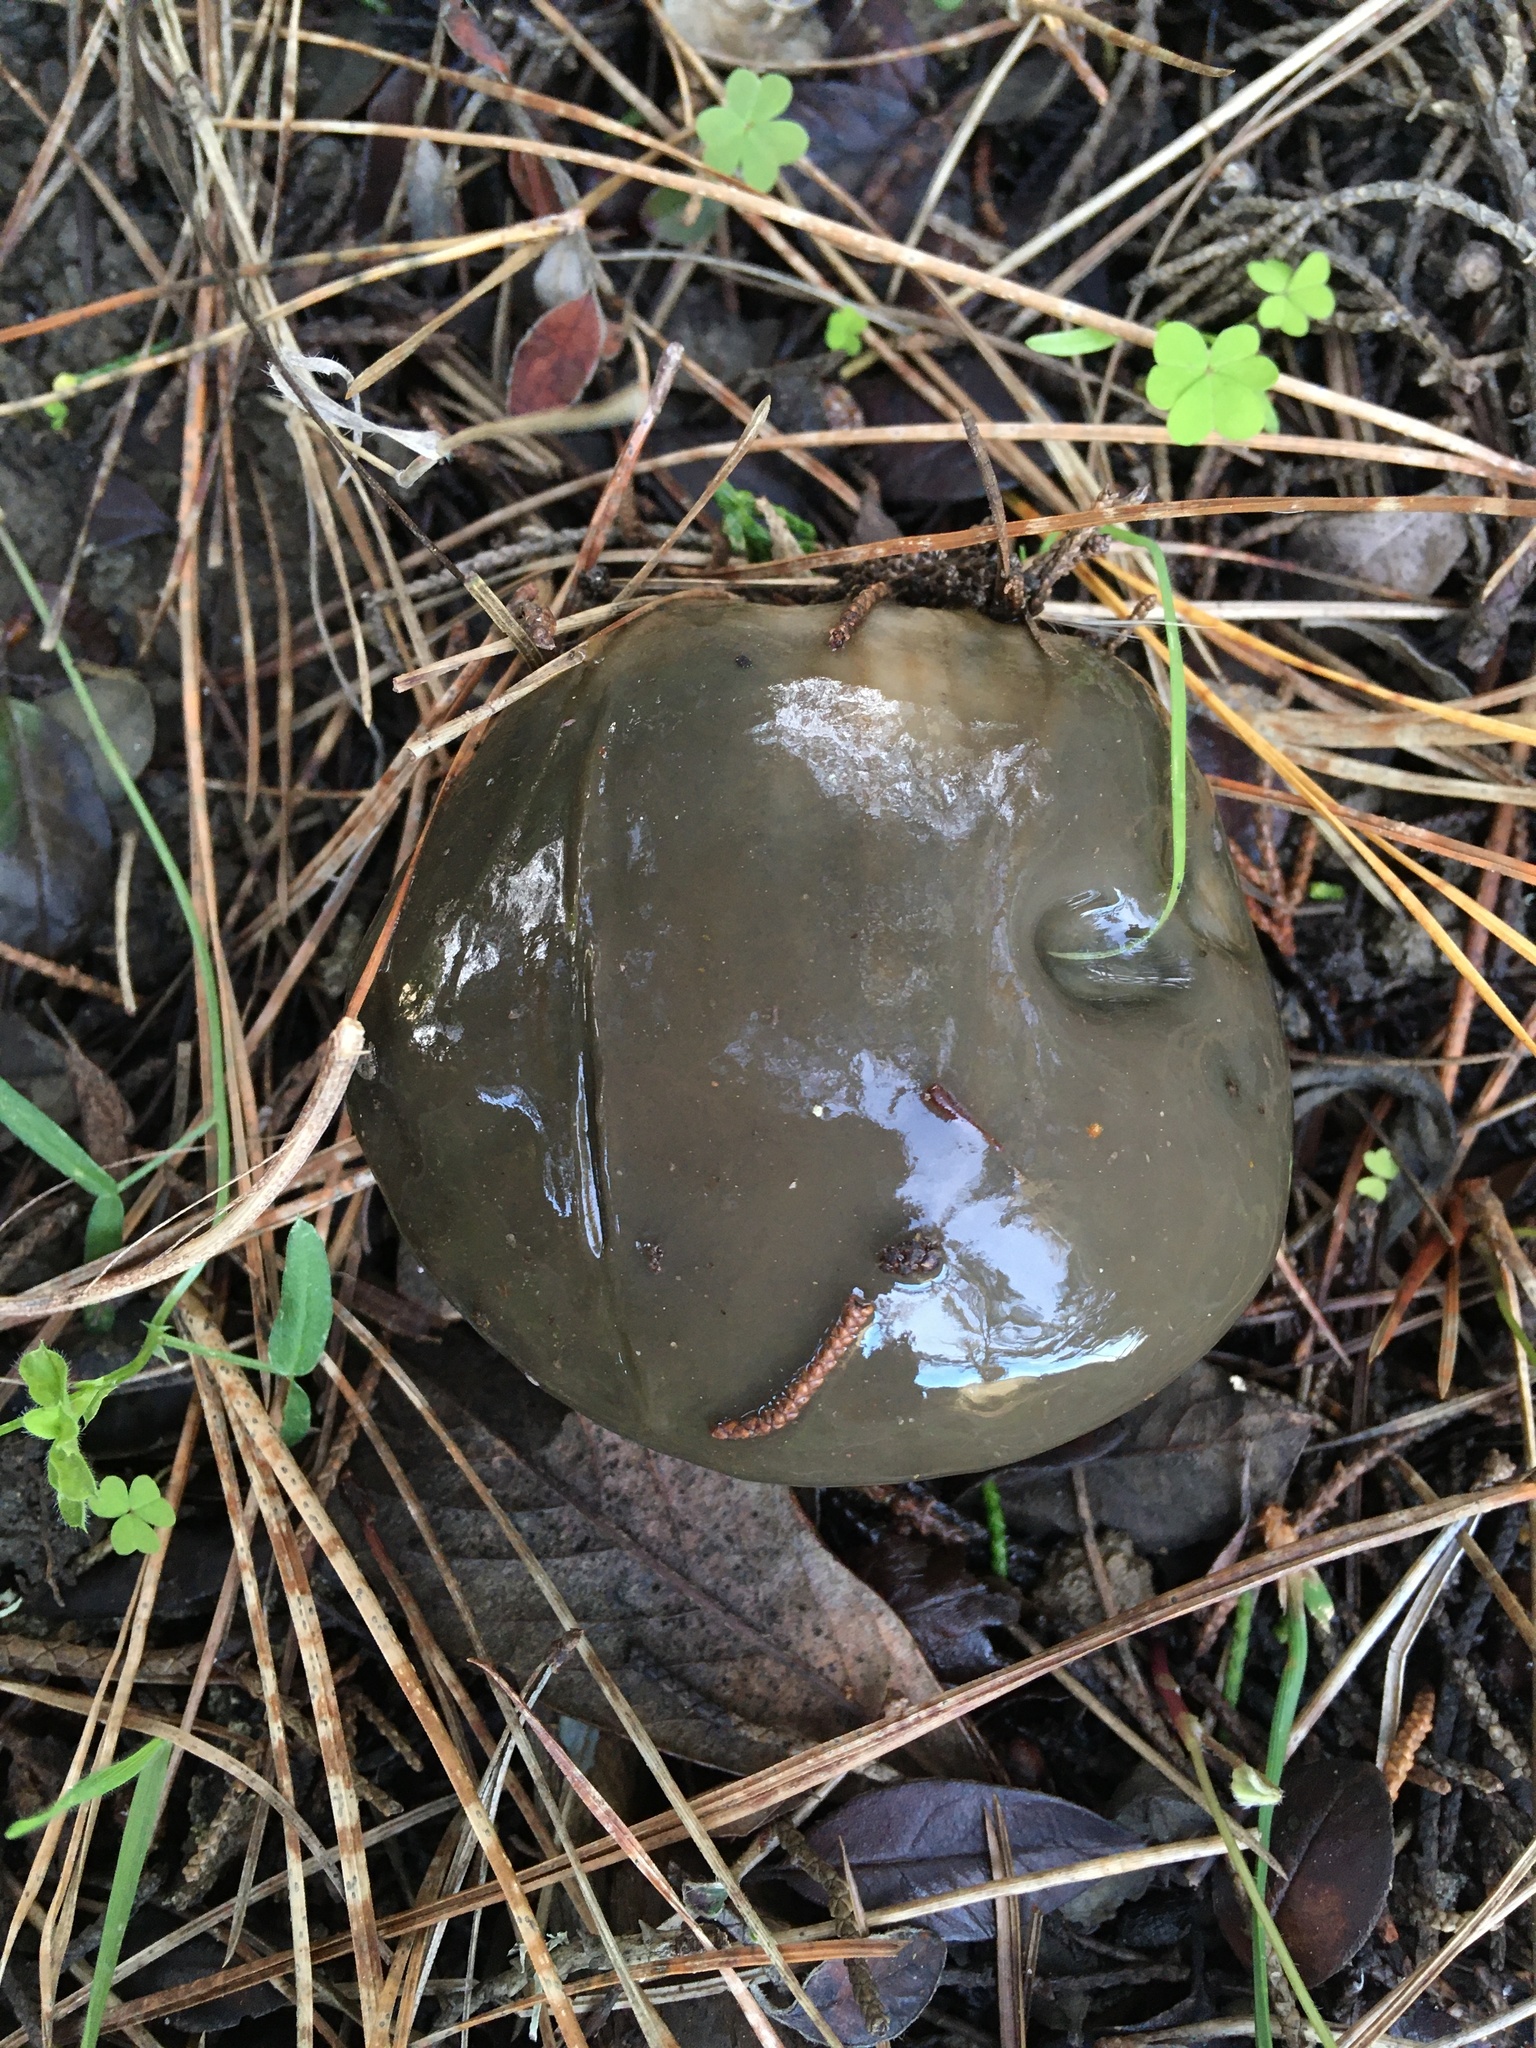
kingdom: Fungi
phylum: Basidiomycota
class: Agaricomycetes
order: Boletales
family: Suillaceae
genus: Suillus
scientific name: Suillus pungens
